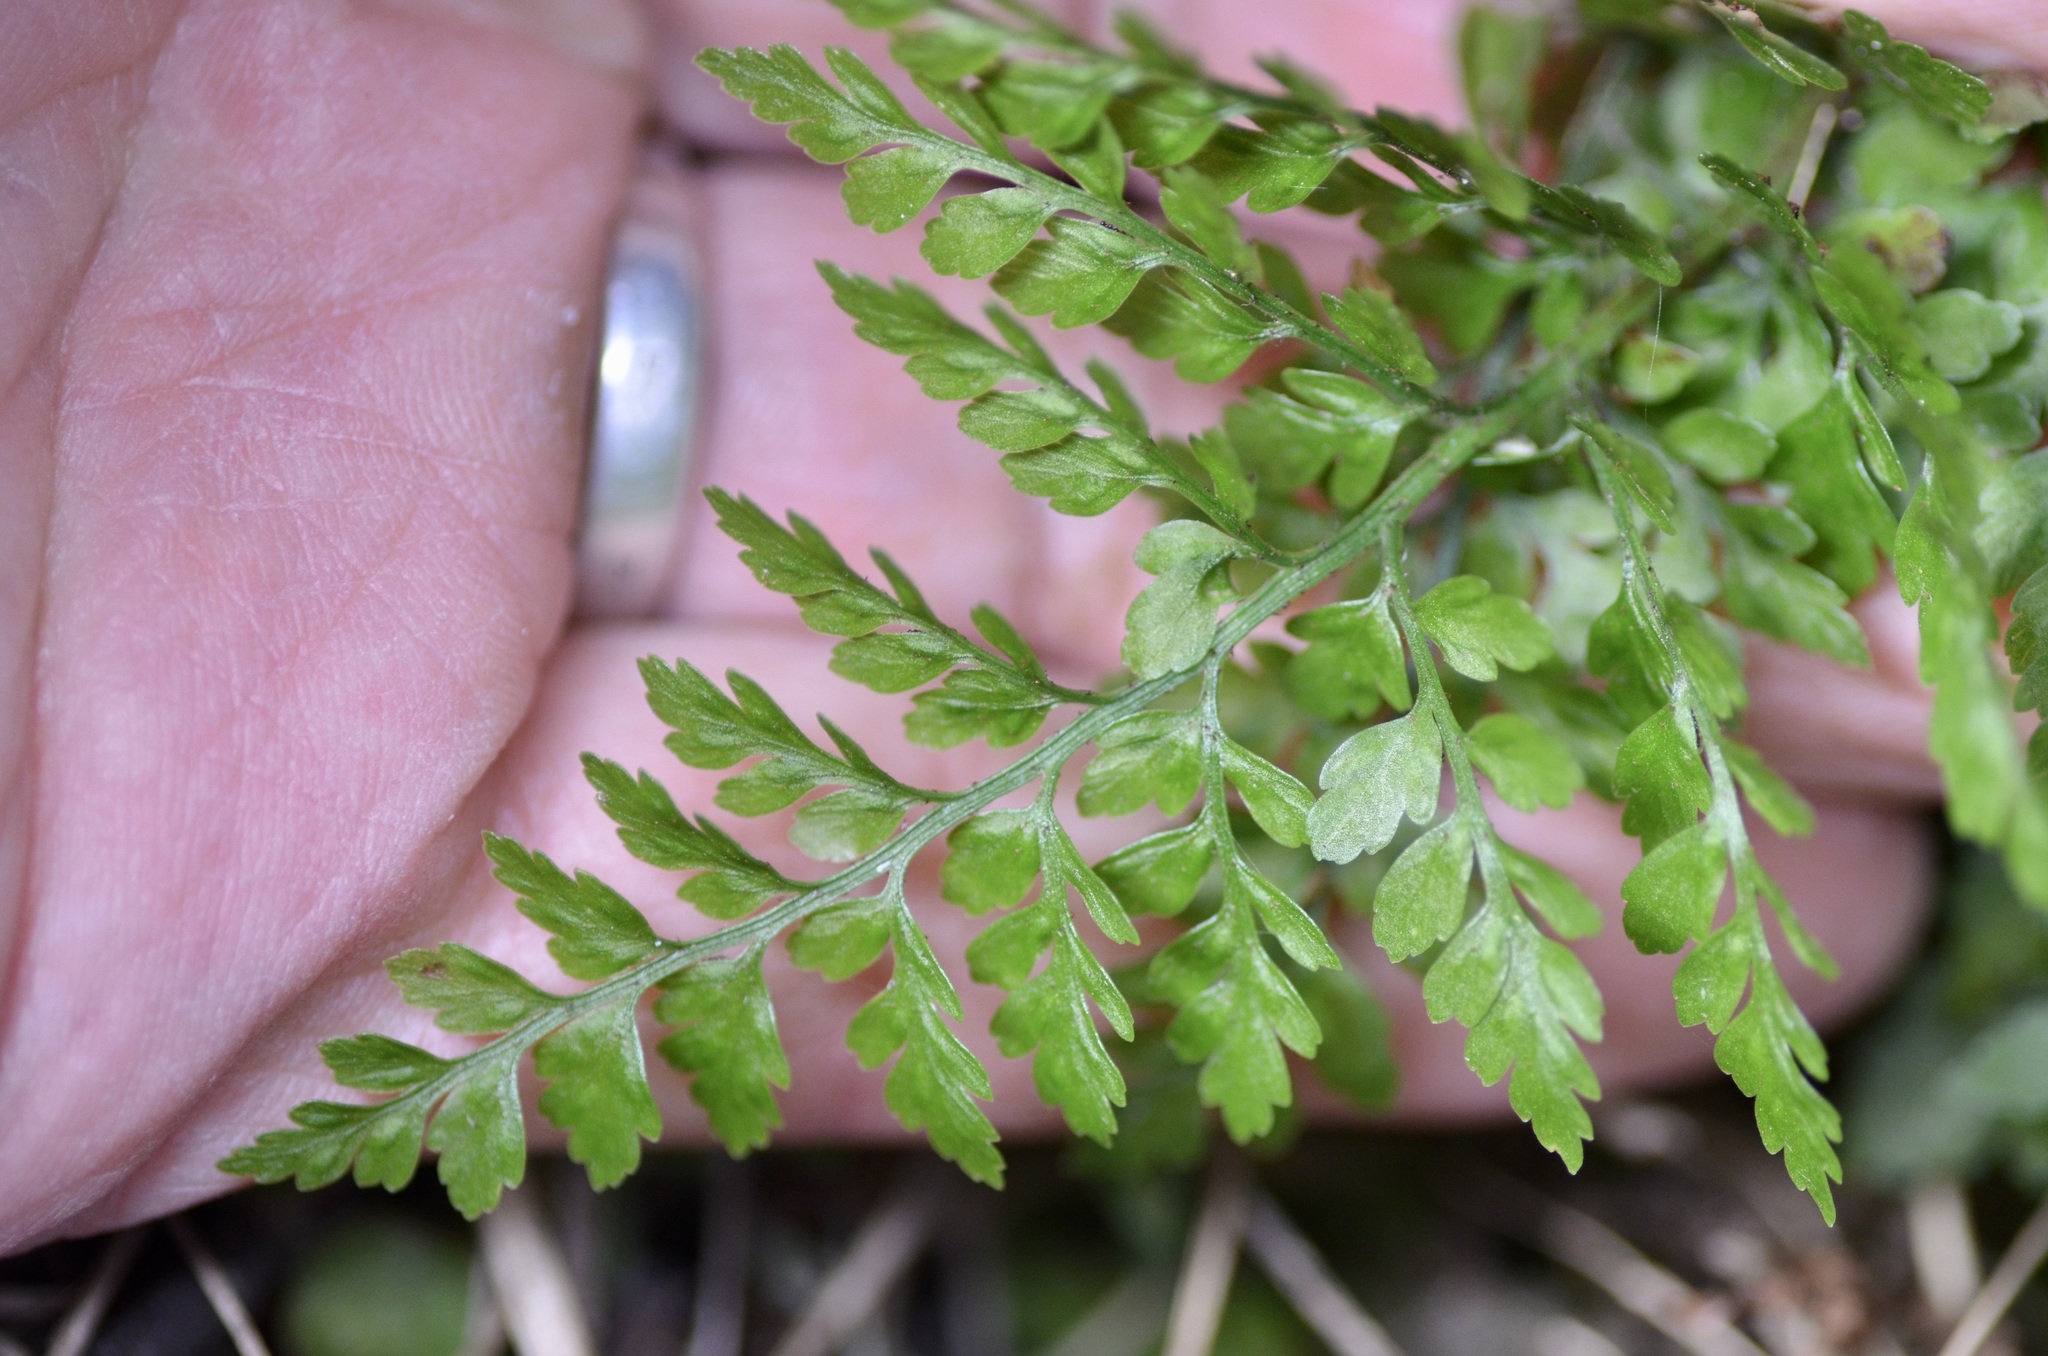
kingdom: Plantae
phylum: Tracheophyta
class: Polypodiopsida
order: Polypodiales
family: Aspleniaceae
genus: Asplenium
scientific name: Asplenium hookerianum
